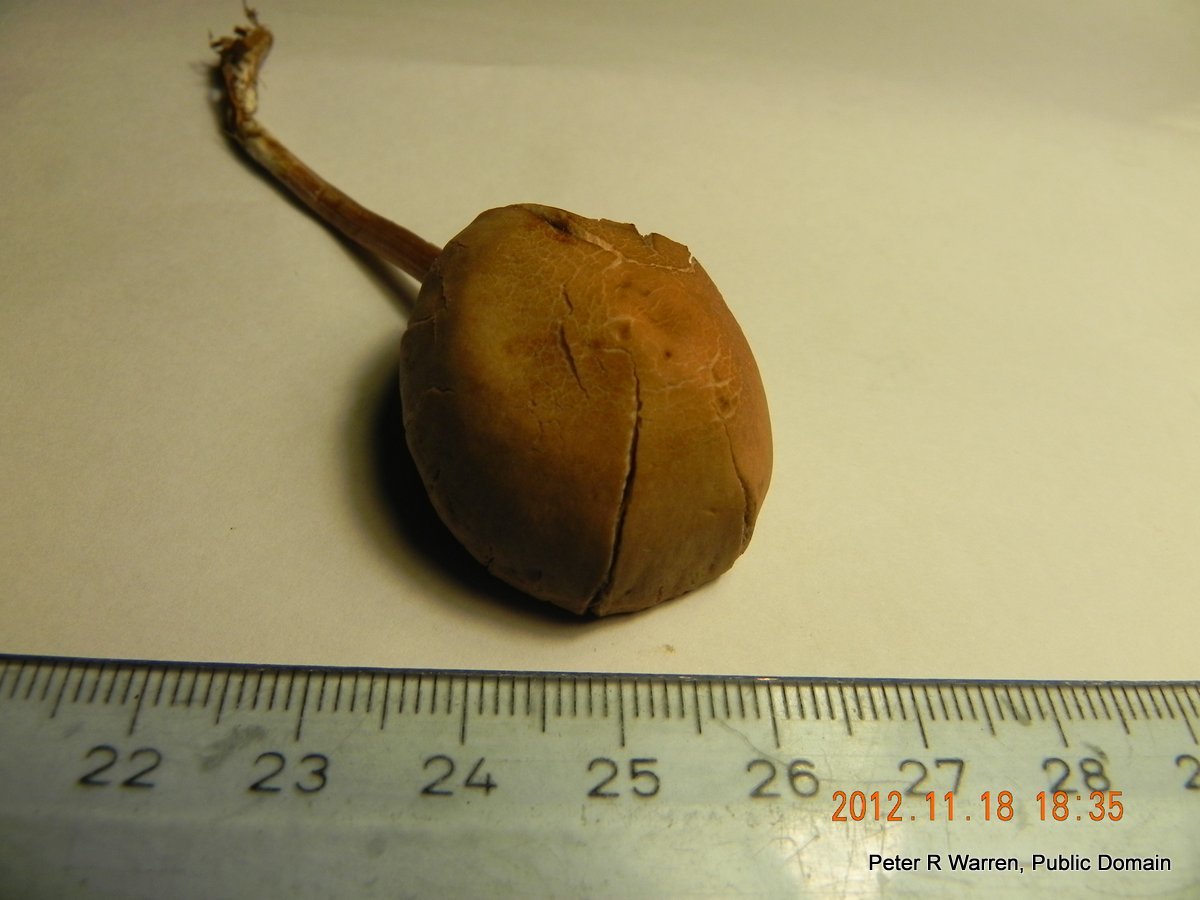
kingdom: Fungi
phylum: Basidiomycota
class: Agaricomycetes
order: Agaricales
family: Bolbitiaceae
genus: Conocybe
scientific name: Conocybe tenera
